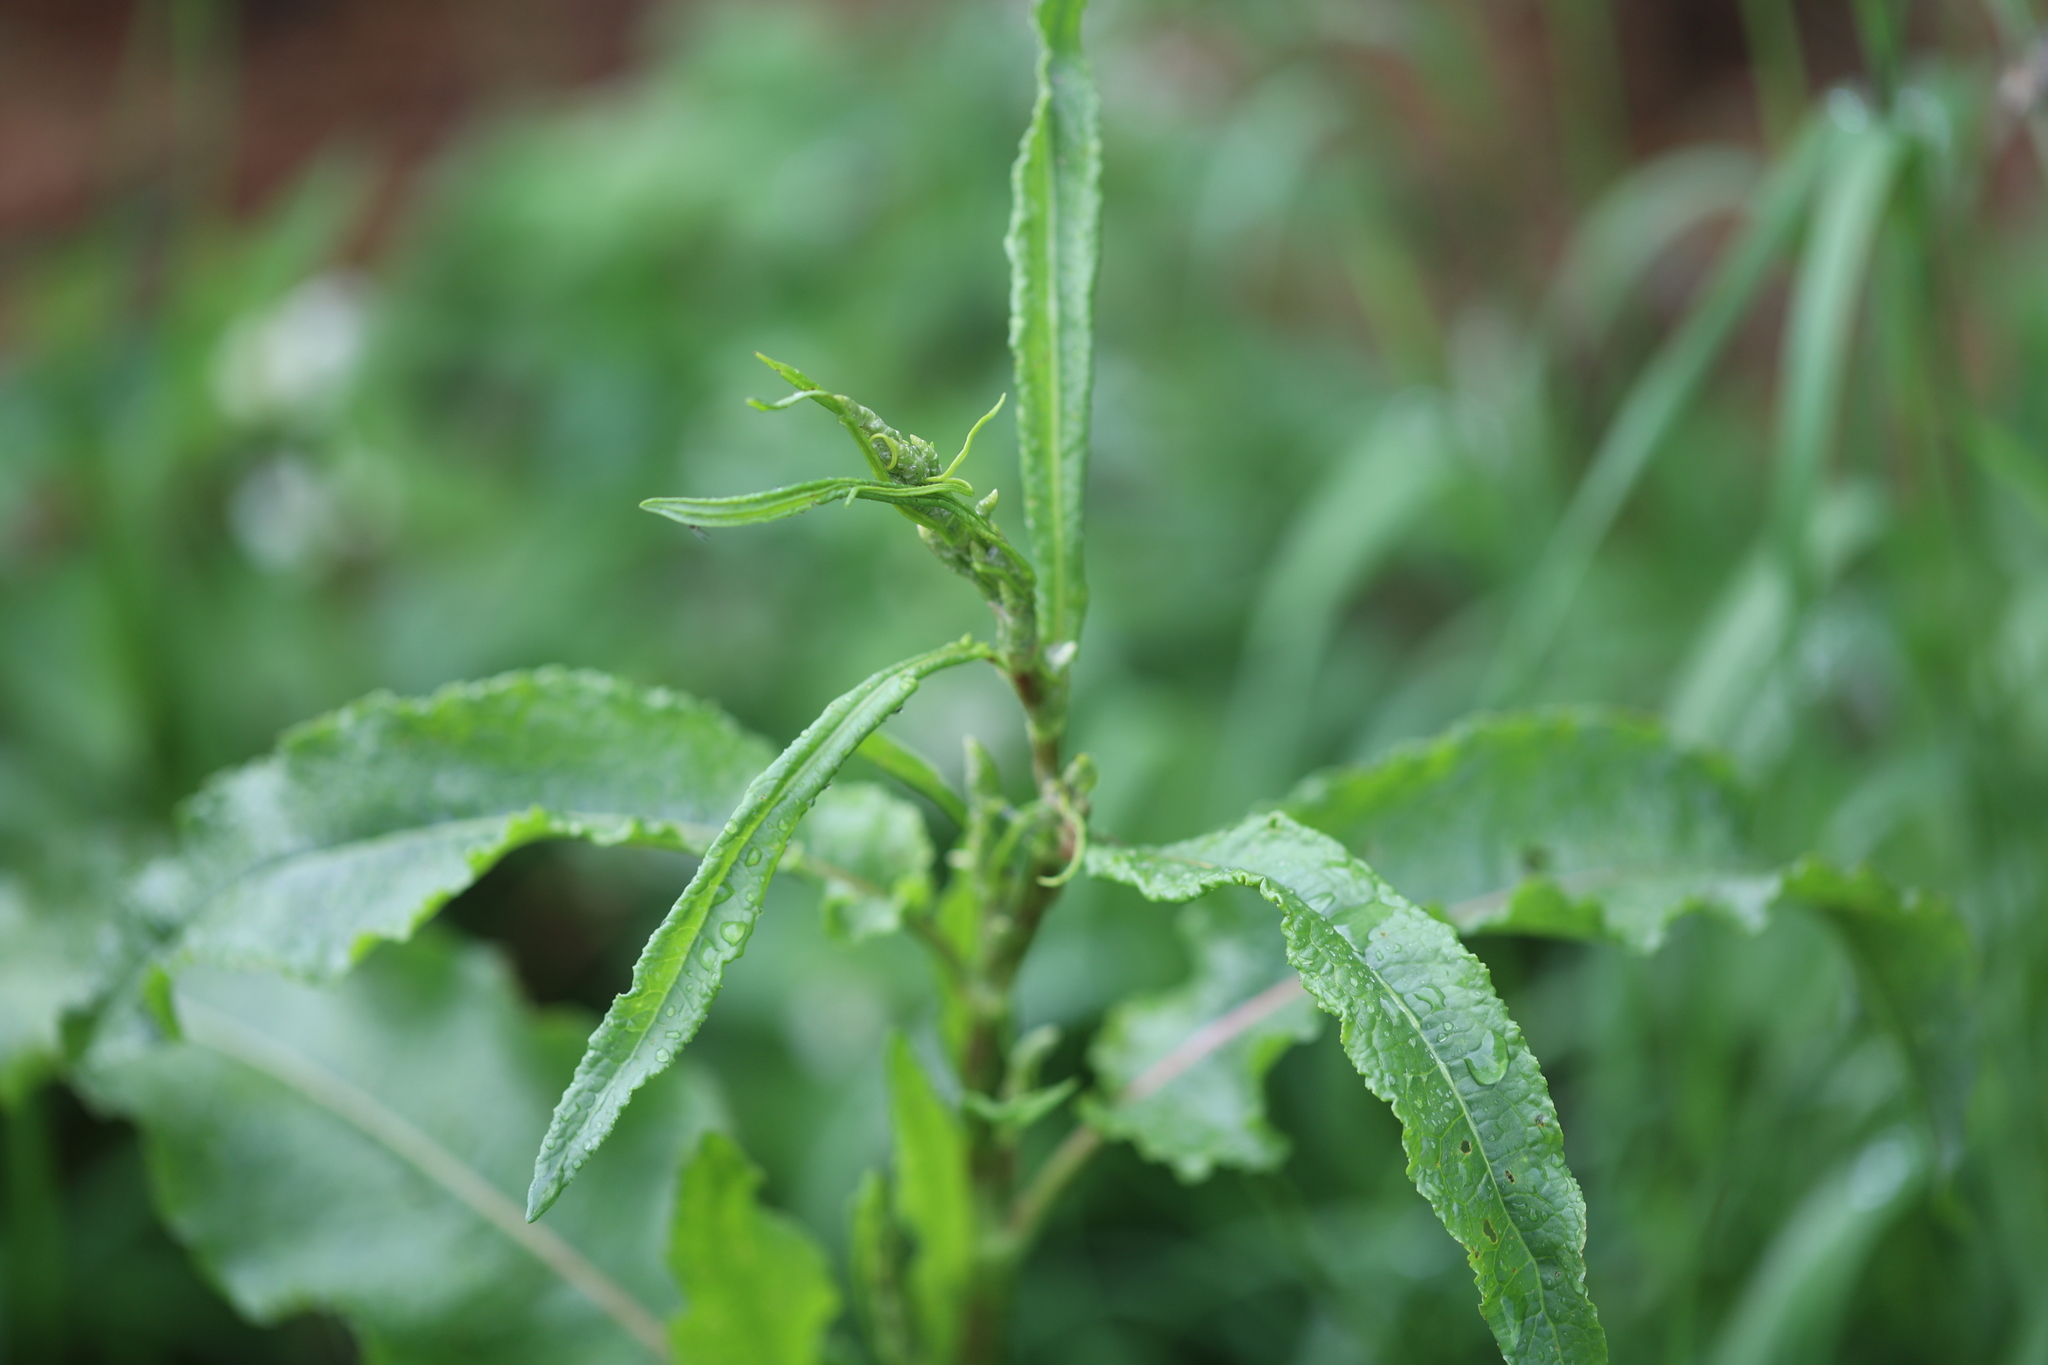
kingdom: Plantae
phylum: Tracheophyta
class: Magnoliopsida
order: Caryophyllales
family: Polygonaceae
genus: Rumex
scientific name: Rumex crispus
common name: Curled dock
